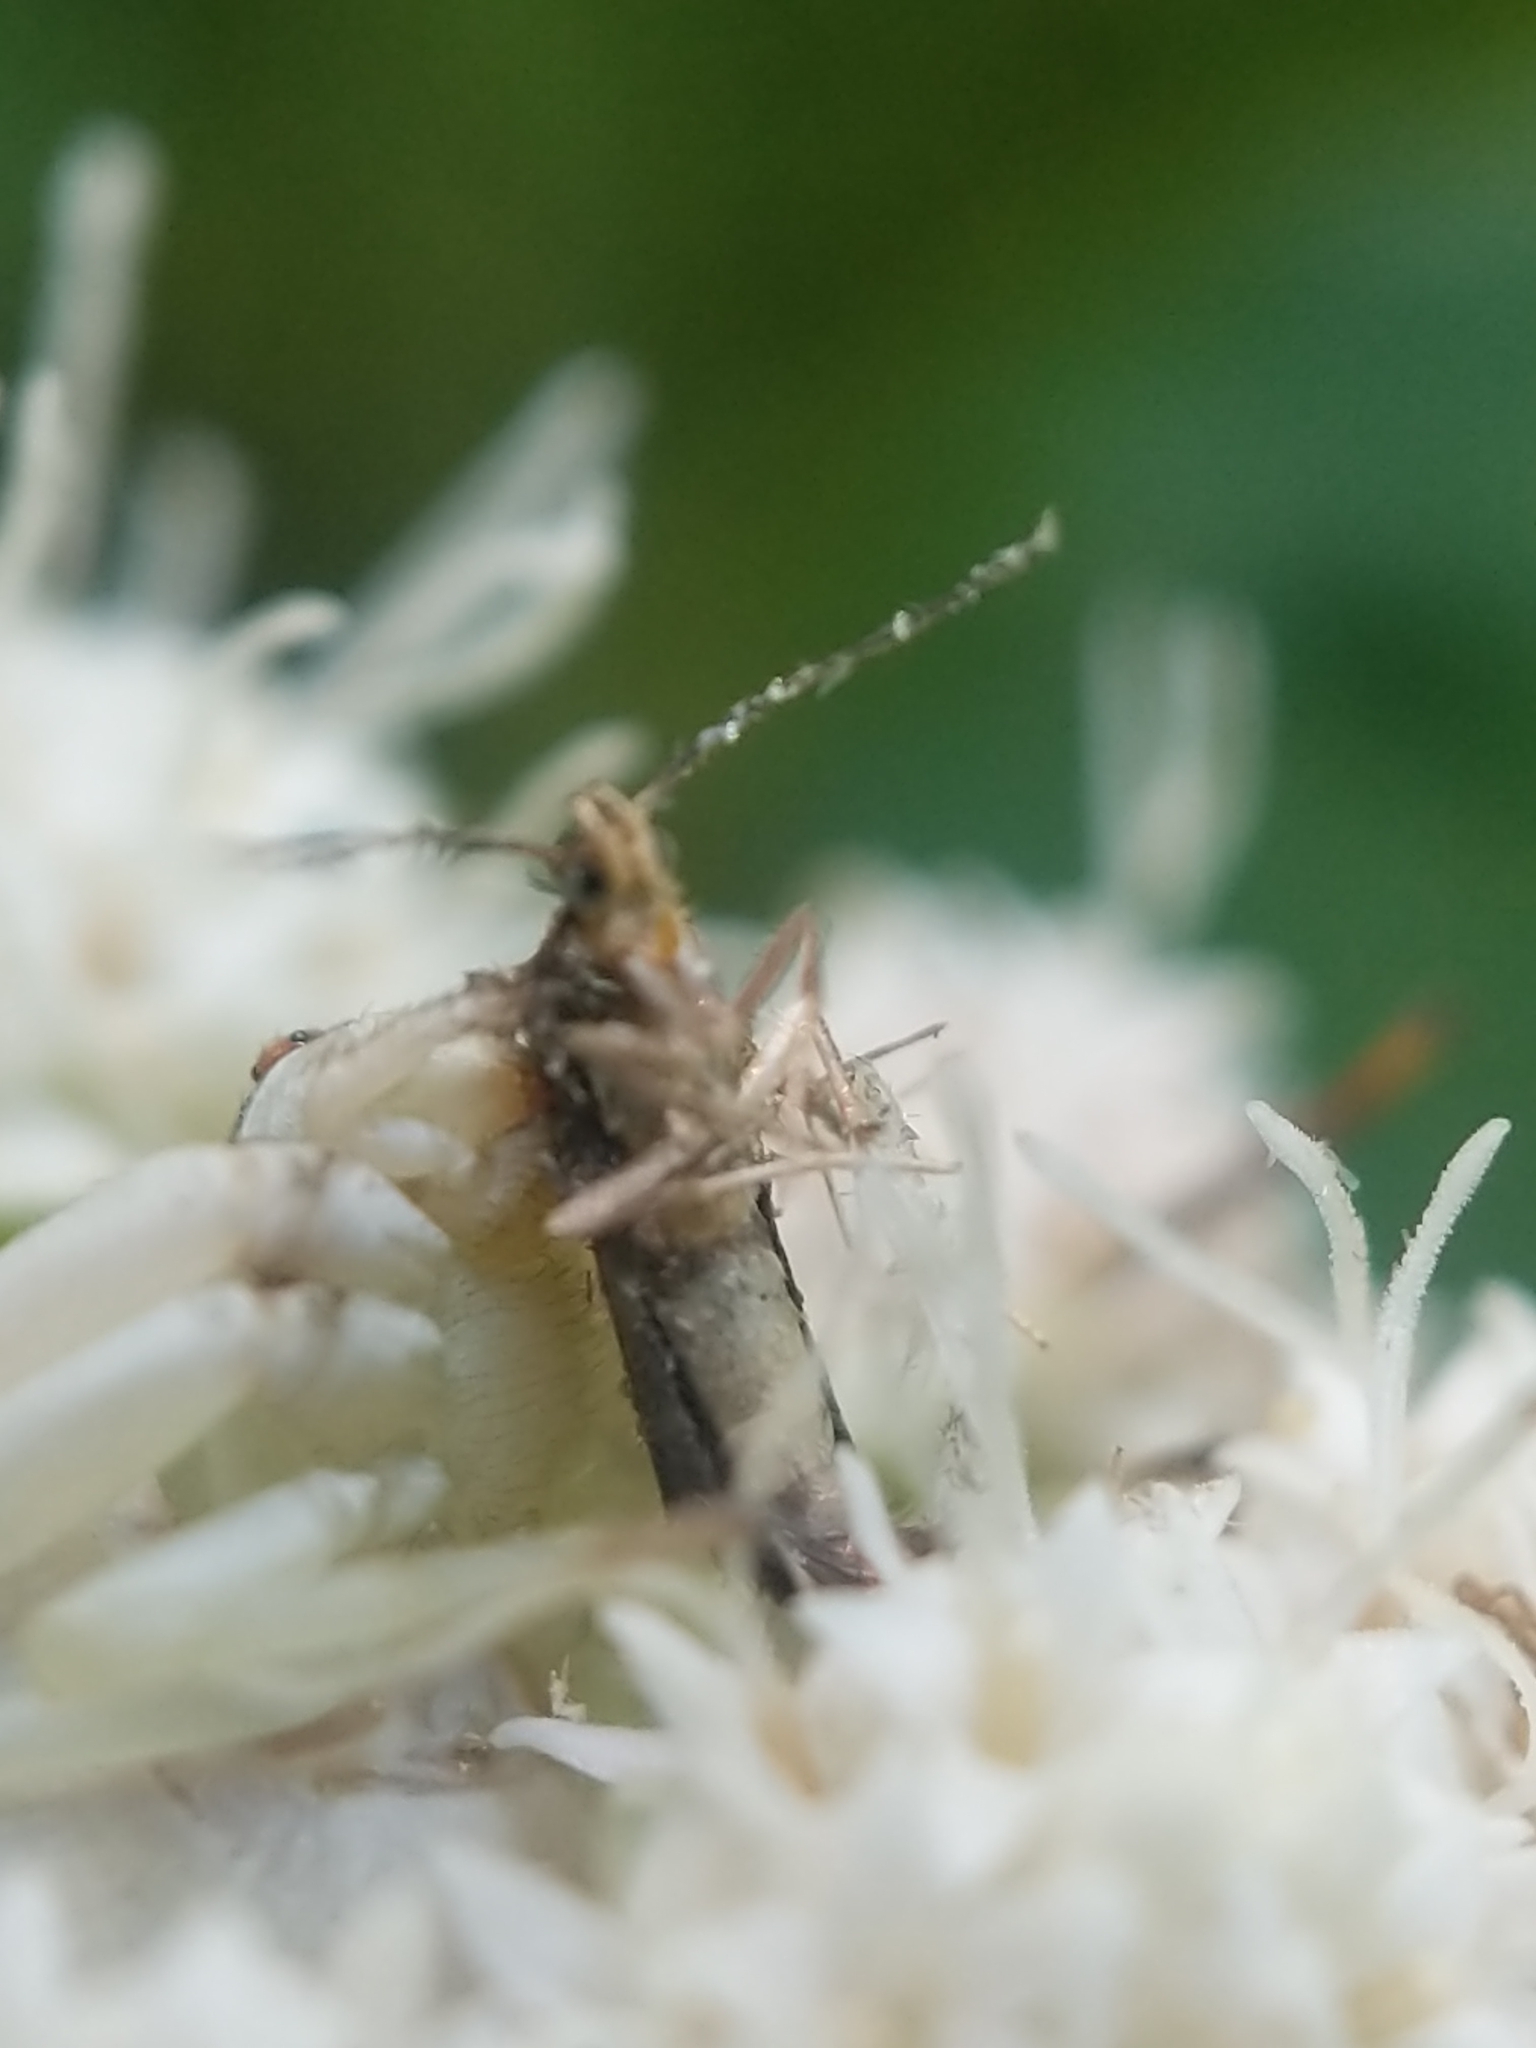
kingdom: Animalia
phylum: Arthropoda
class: Arachnida
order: Araneae
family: Thomisidae
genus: Misumenoides
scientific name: Misumenoides formosipes
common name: White-banded crab spider
